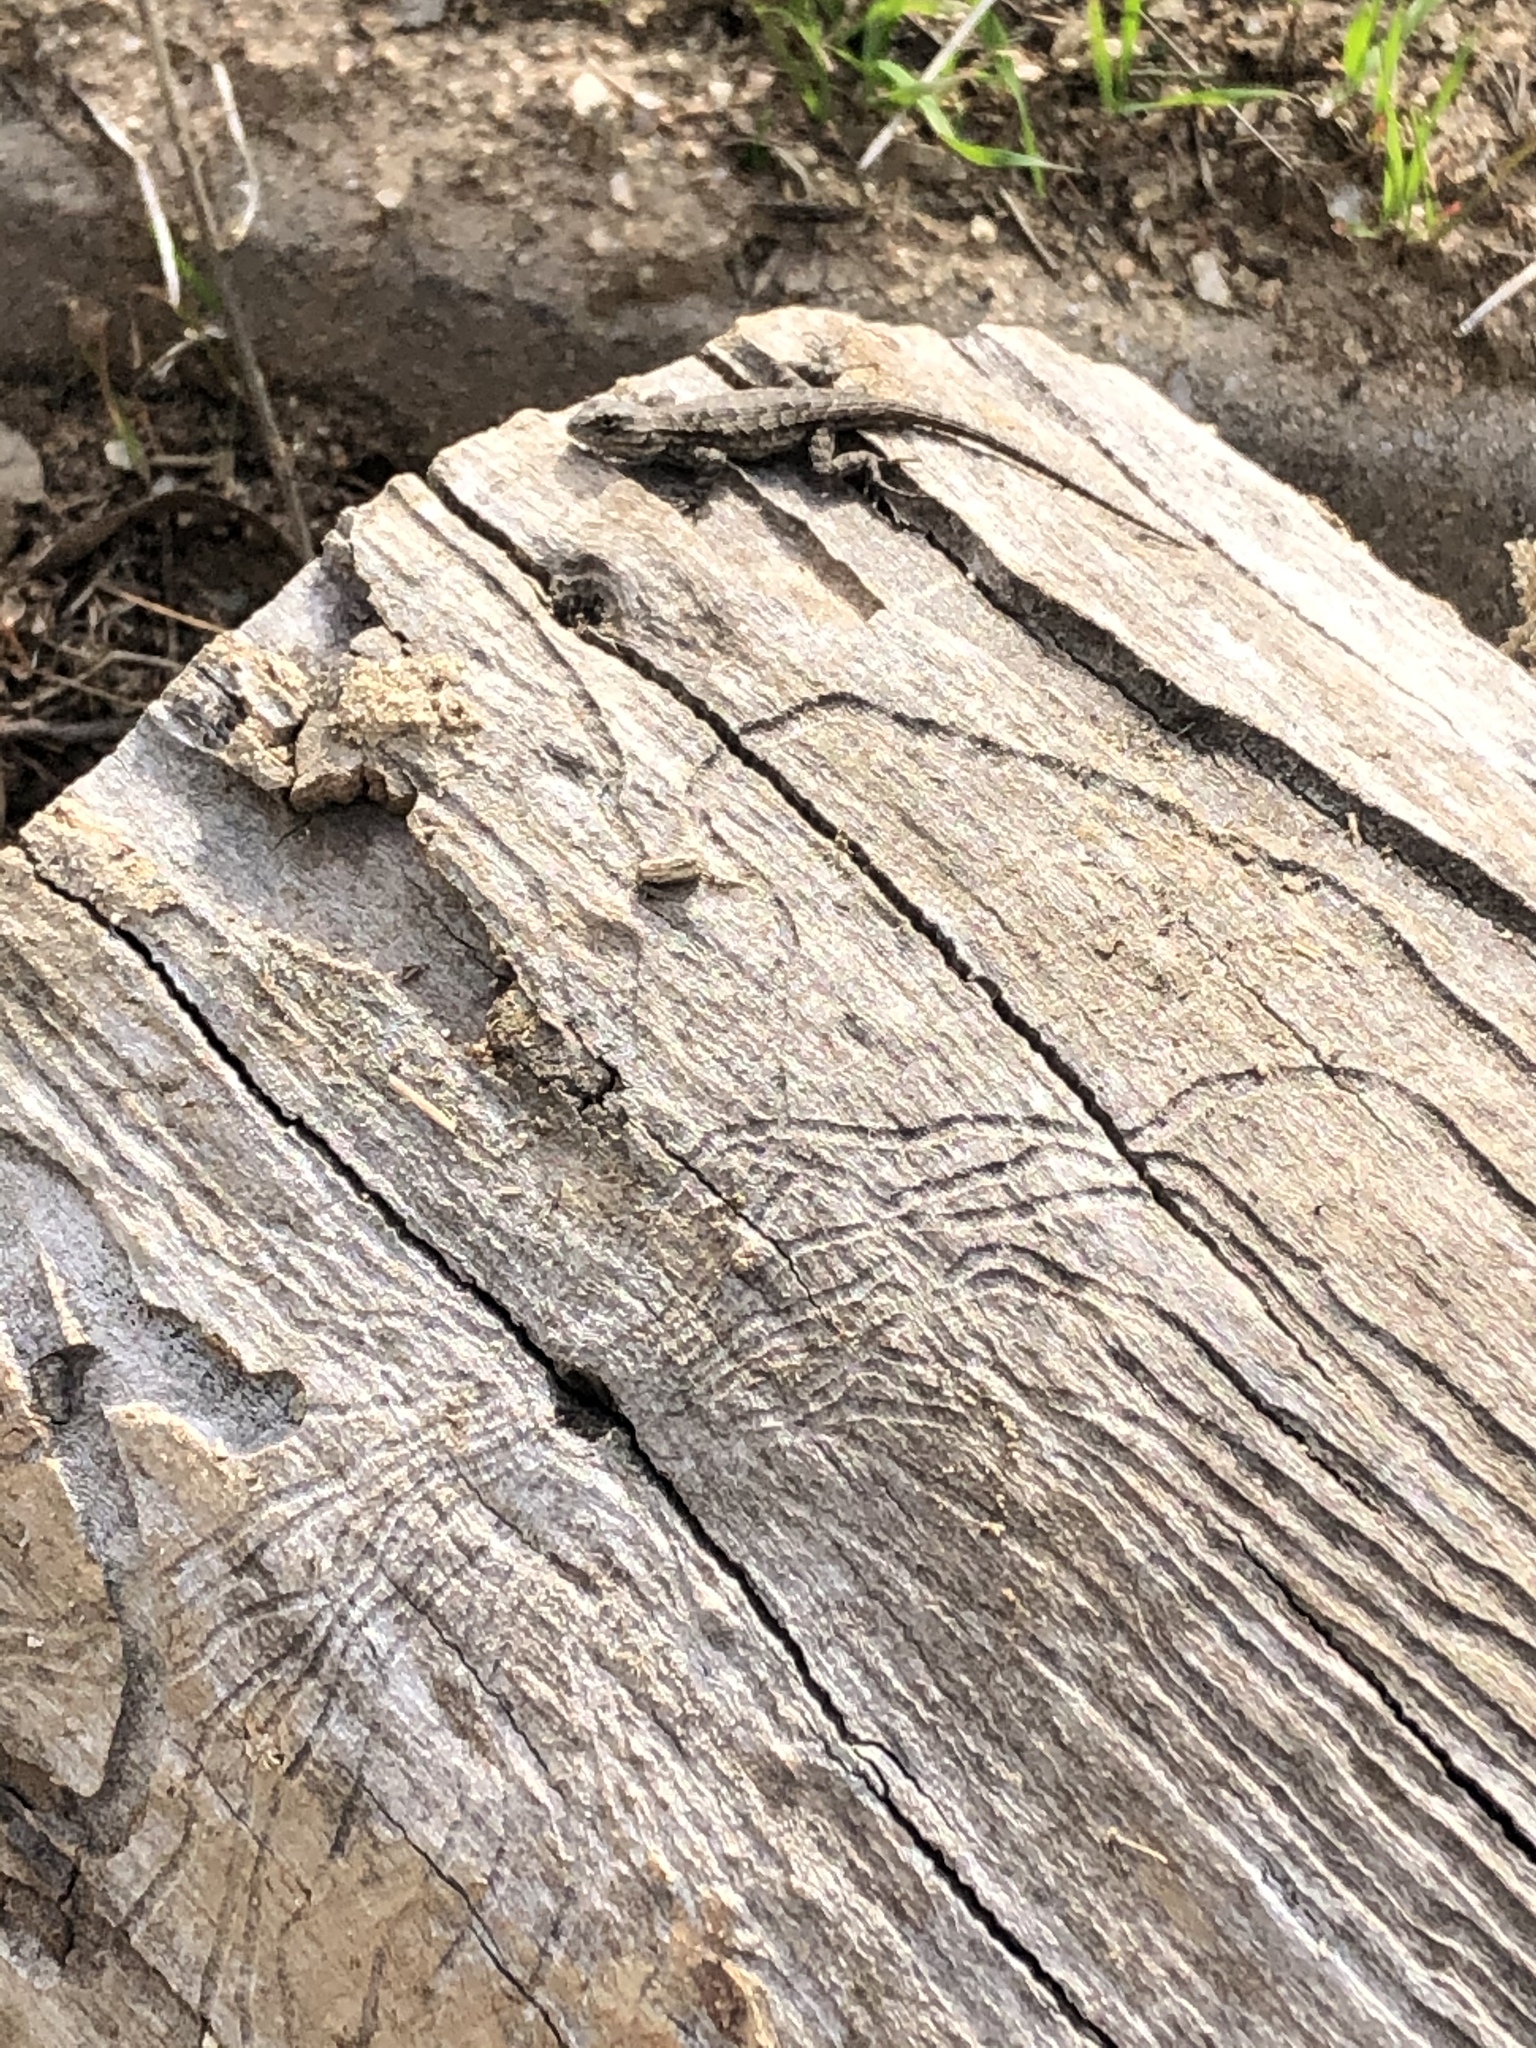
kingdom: Animalia
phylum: Chordata
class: Squamata
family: Phrynosomatidae
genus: Sceloporus
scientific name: Sceloporus occidentalis
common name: Western fence lizard
